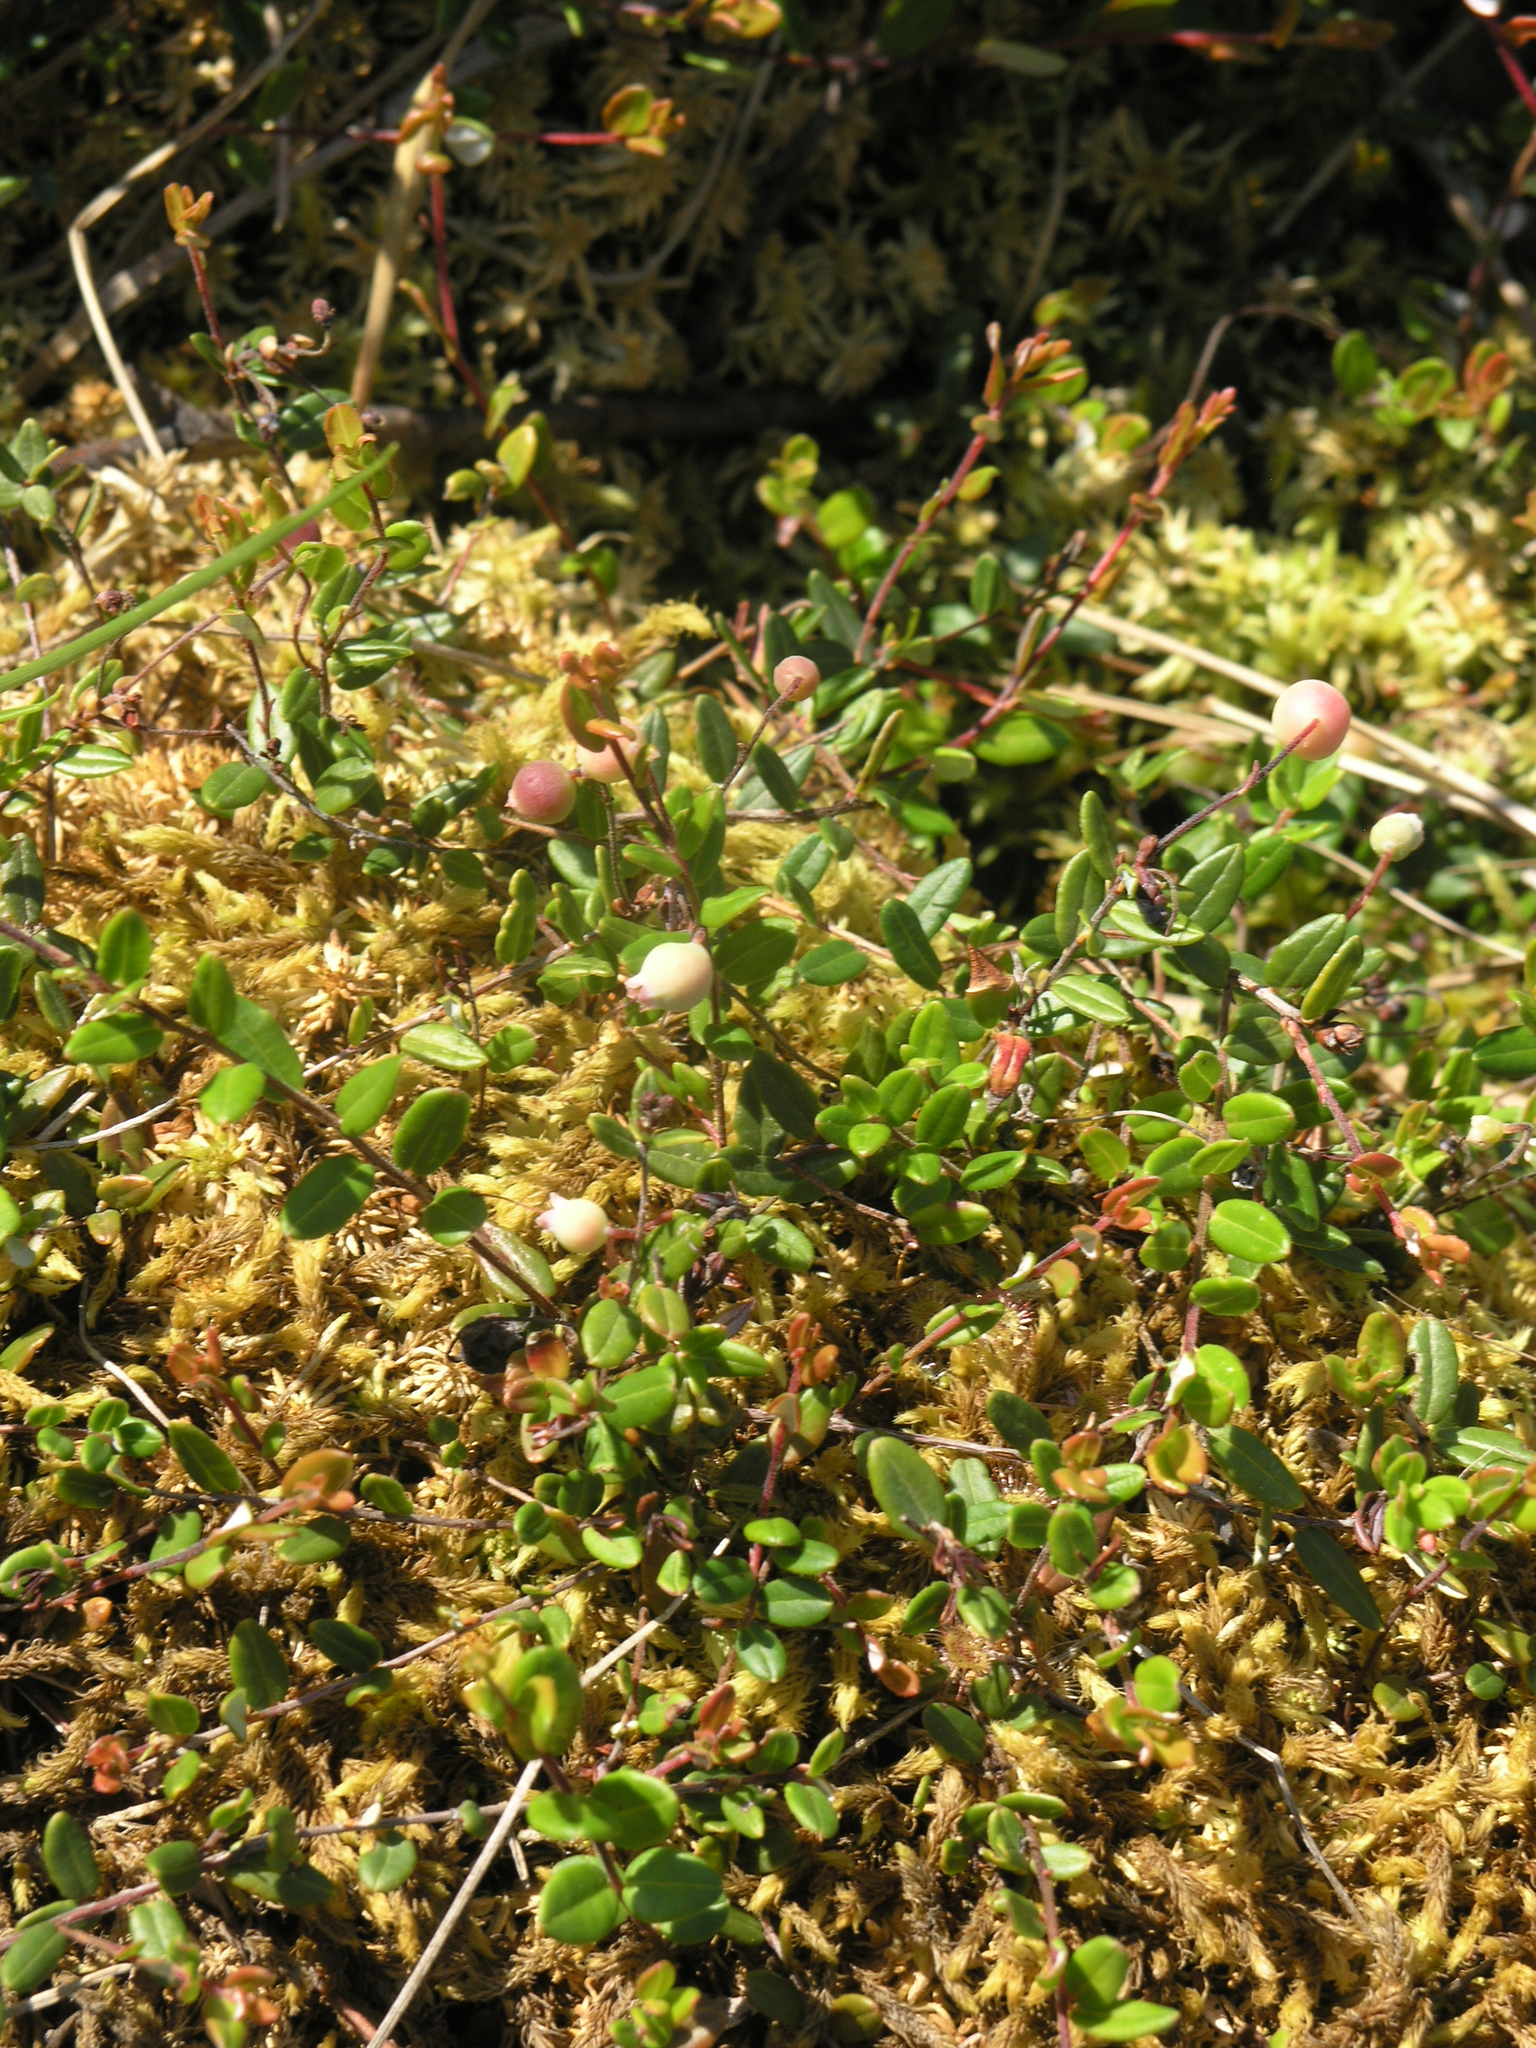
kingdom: Plantae
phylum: Tracheophyta
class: Magnoliopsida
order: Ericales
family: Ericaceae
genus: Vaccinium
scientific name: Vaccinium oxycoccos
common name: Cranberry
